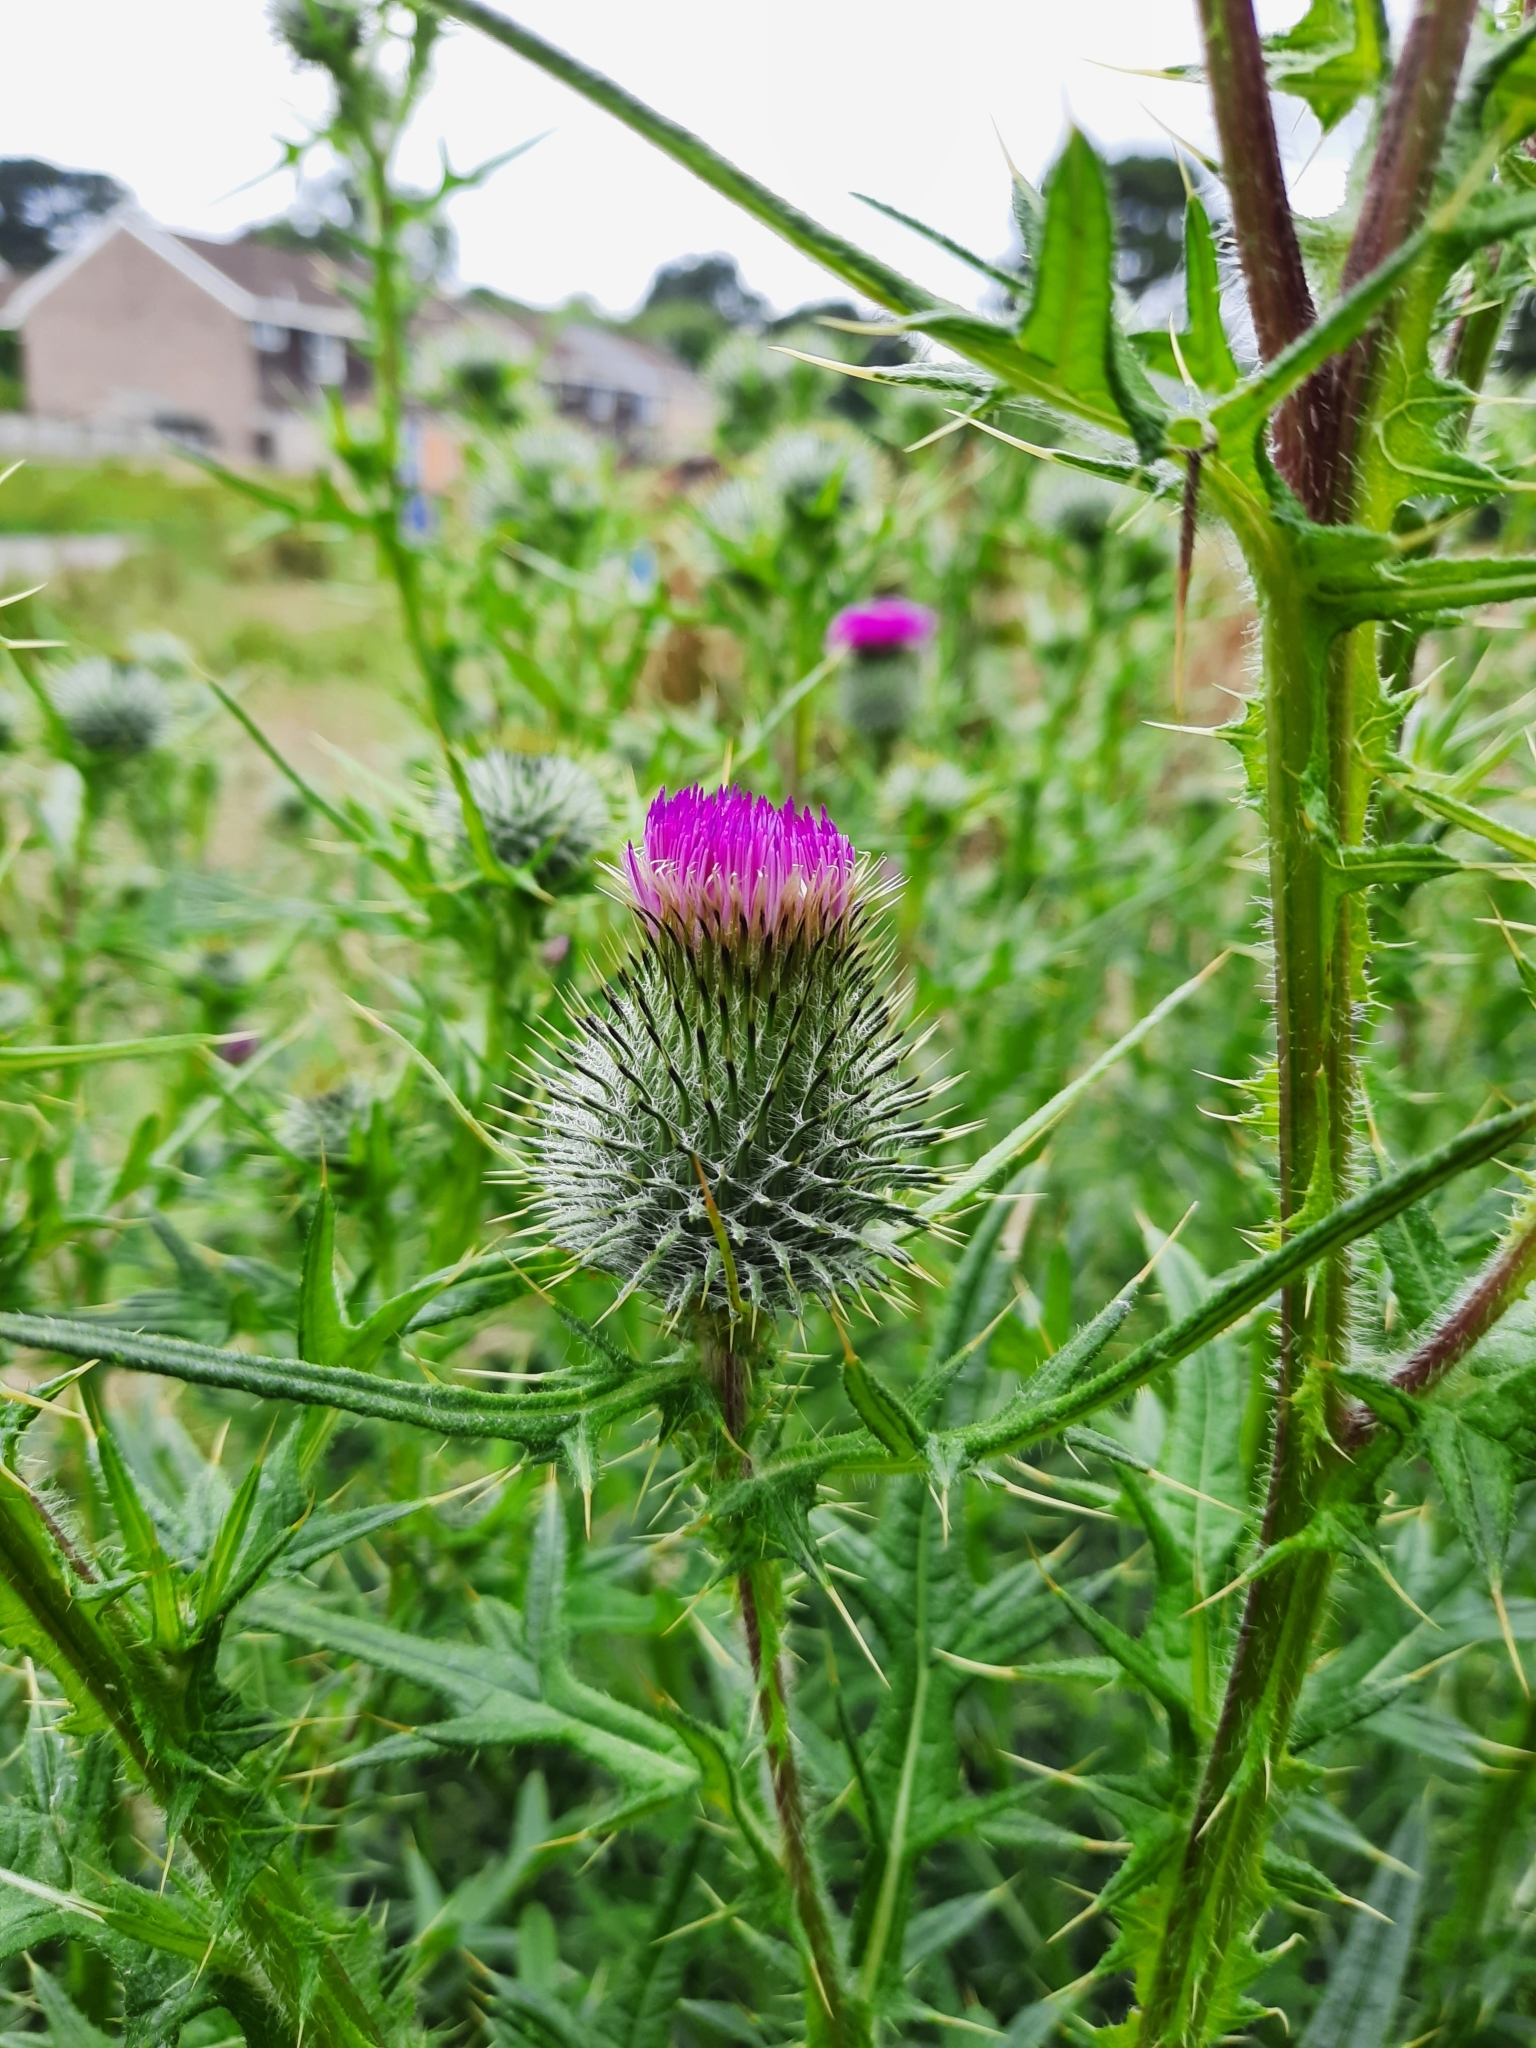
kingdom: Plantae
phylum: Tracheophyta
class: Magnoliopsida
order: Asterales
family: Asteraceae
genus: Cirsium
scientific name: Cirsium vulgare
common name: Bull thistle
